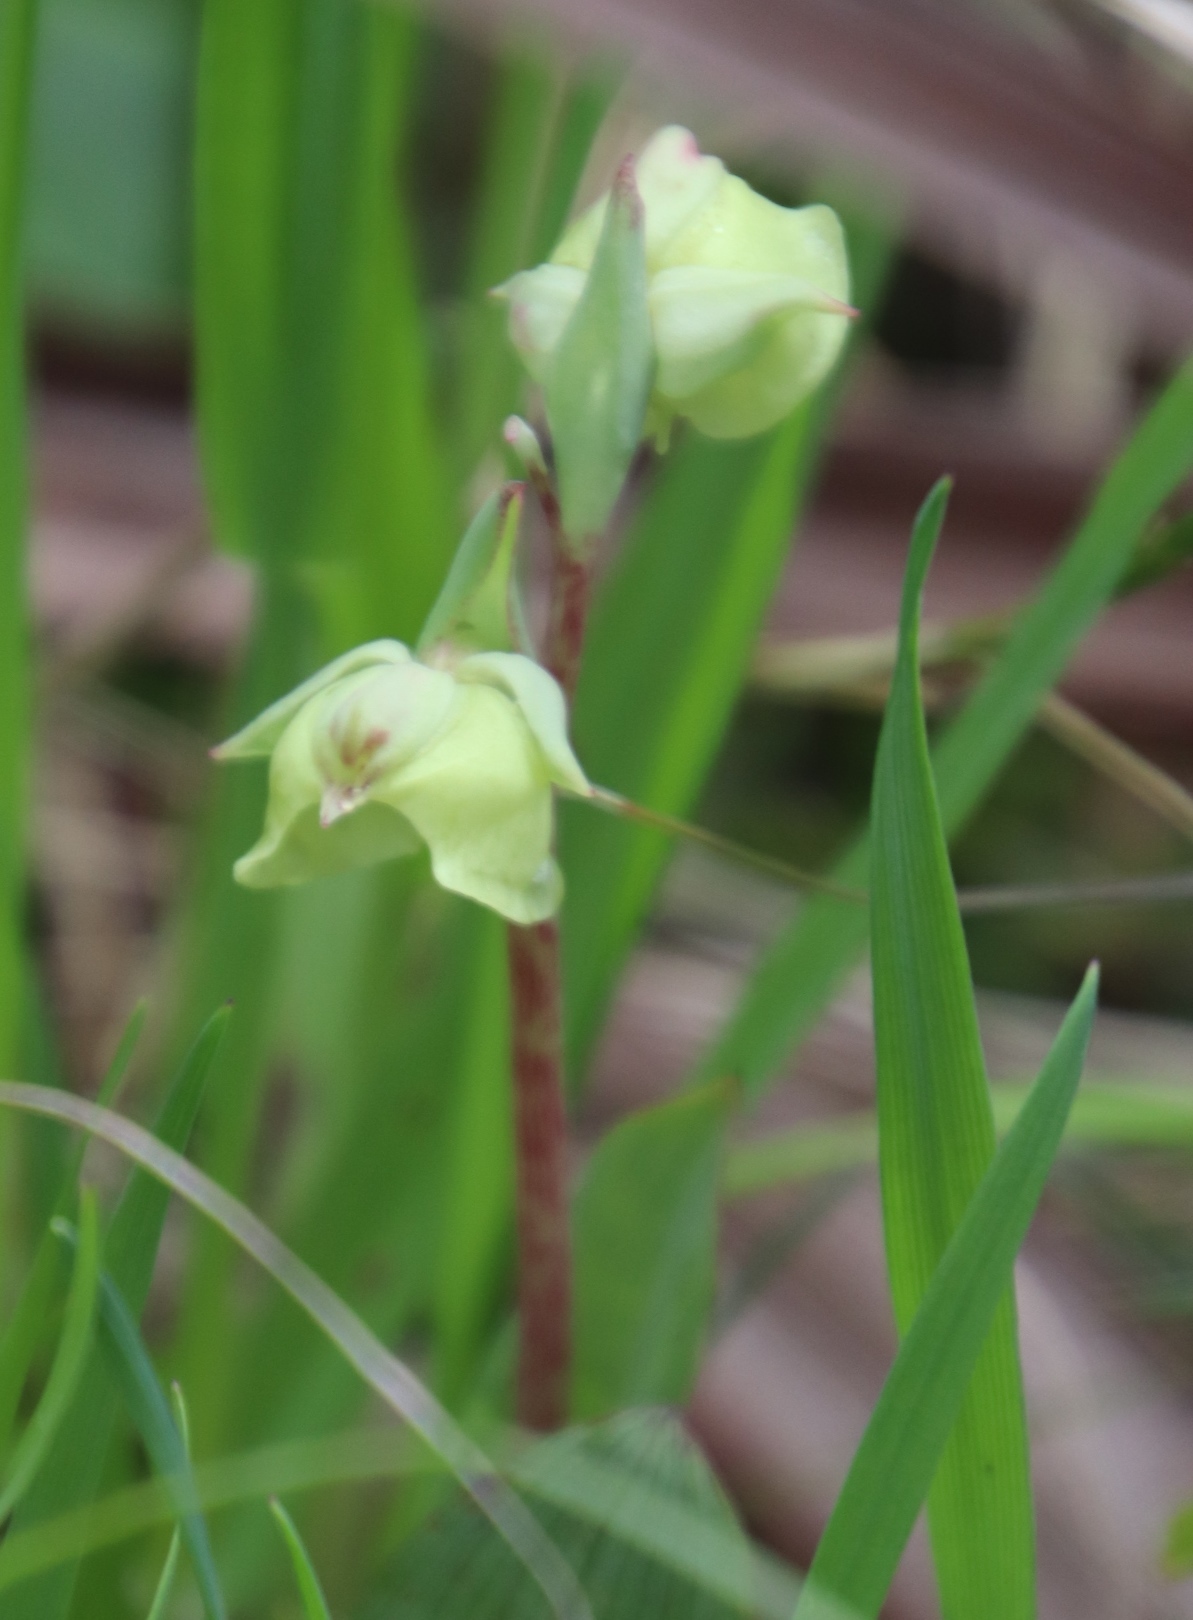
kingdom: Plantae
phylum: Tracheophyta
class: Liliopsida
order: Asparagales
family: Orchidaceae
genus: Pterygodium
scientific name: Pterygodium catholicum
